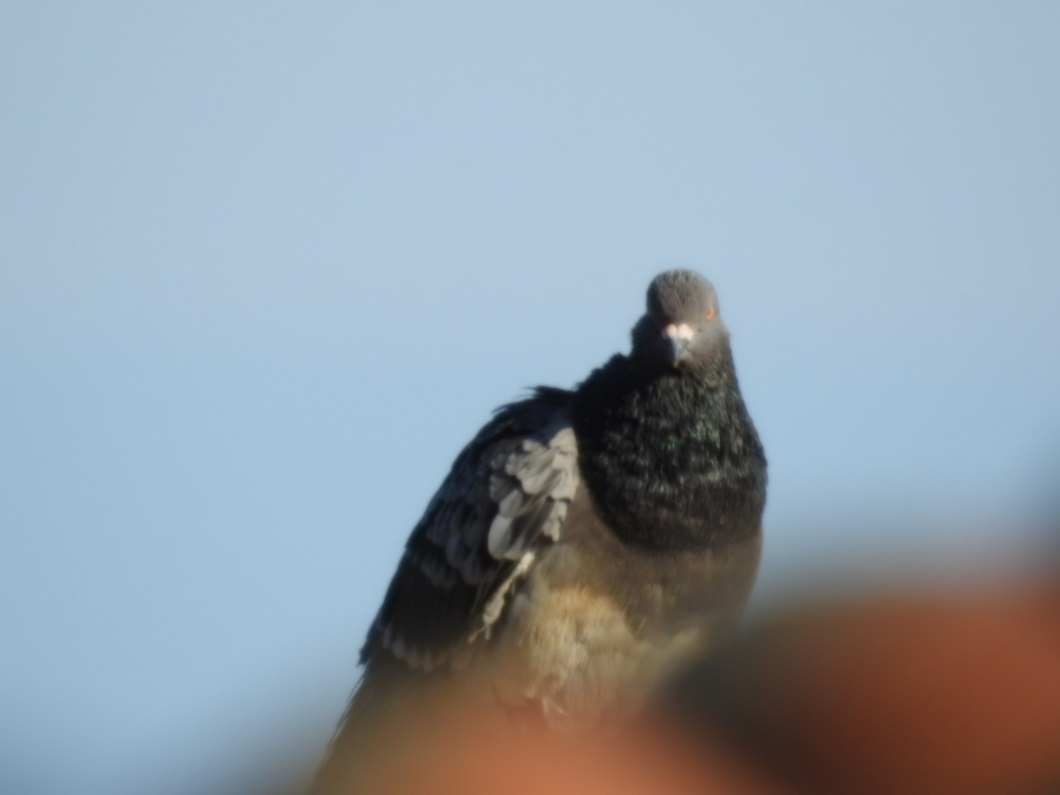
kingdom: Animalia
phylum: Chordata
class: Aves
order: Columbiformes
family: Columbidae
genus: Columba
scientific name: Columba livia
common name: Rock pigeon
